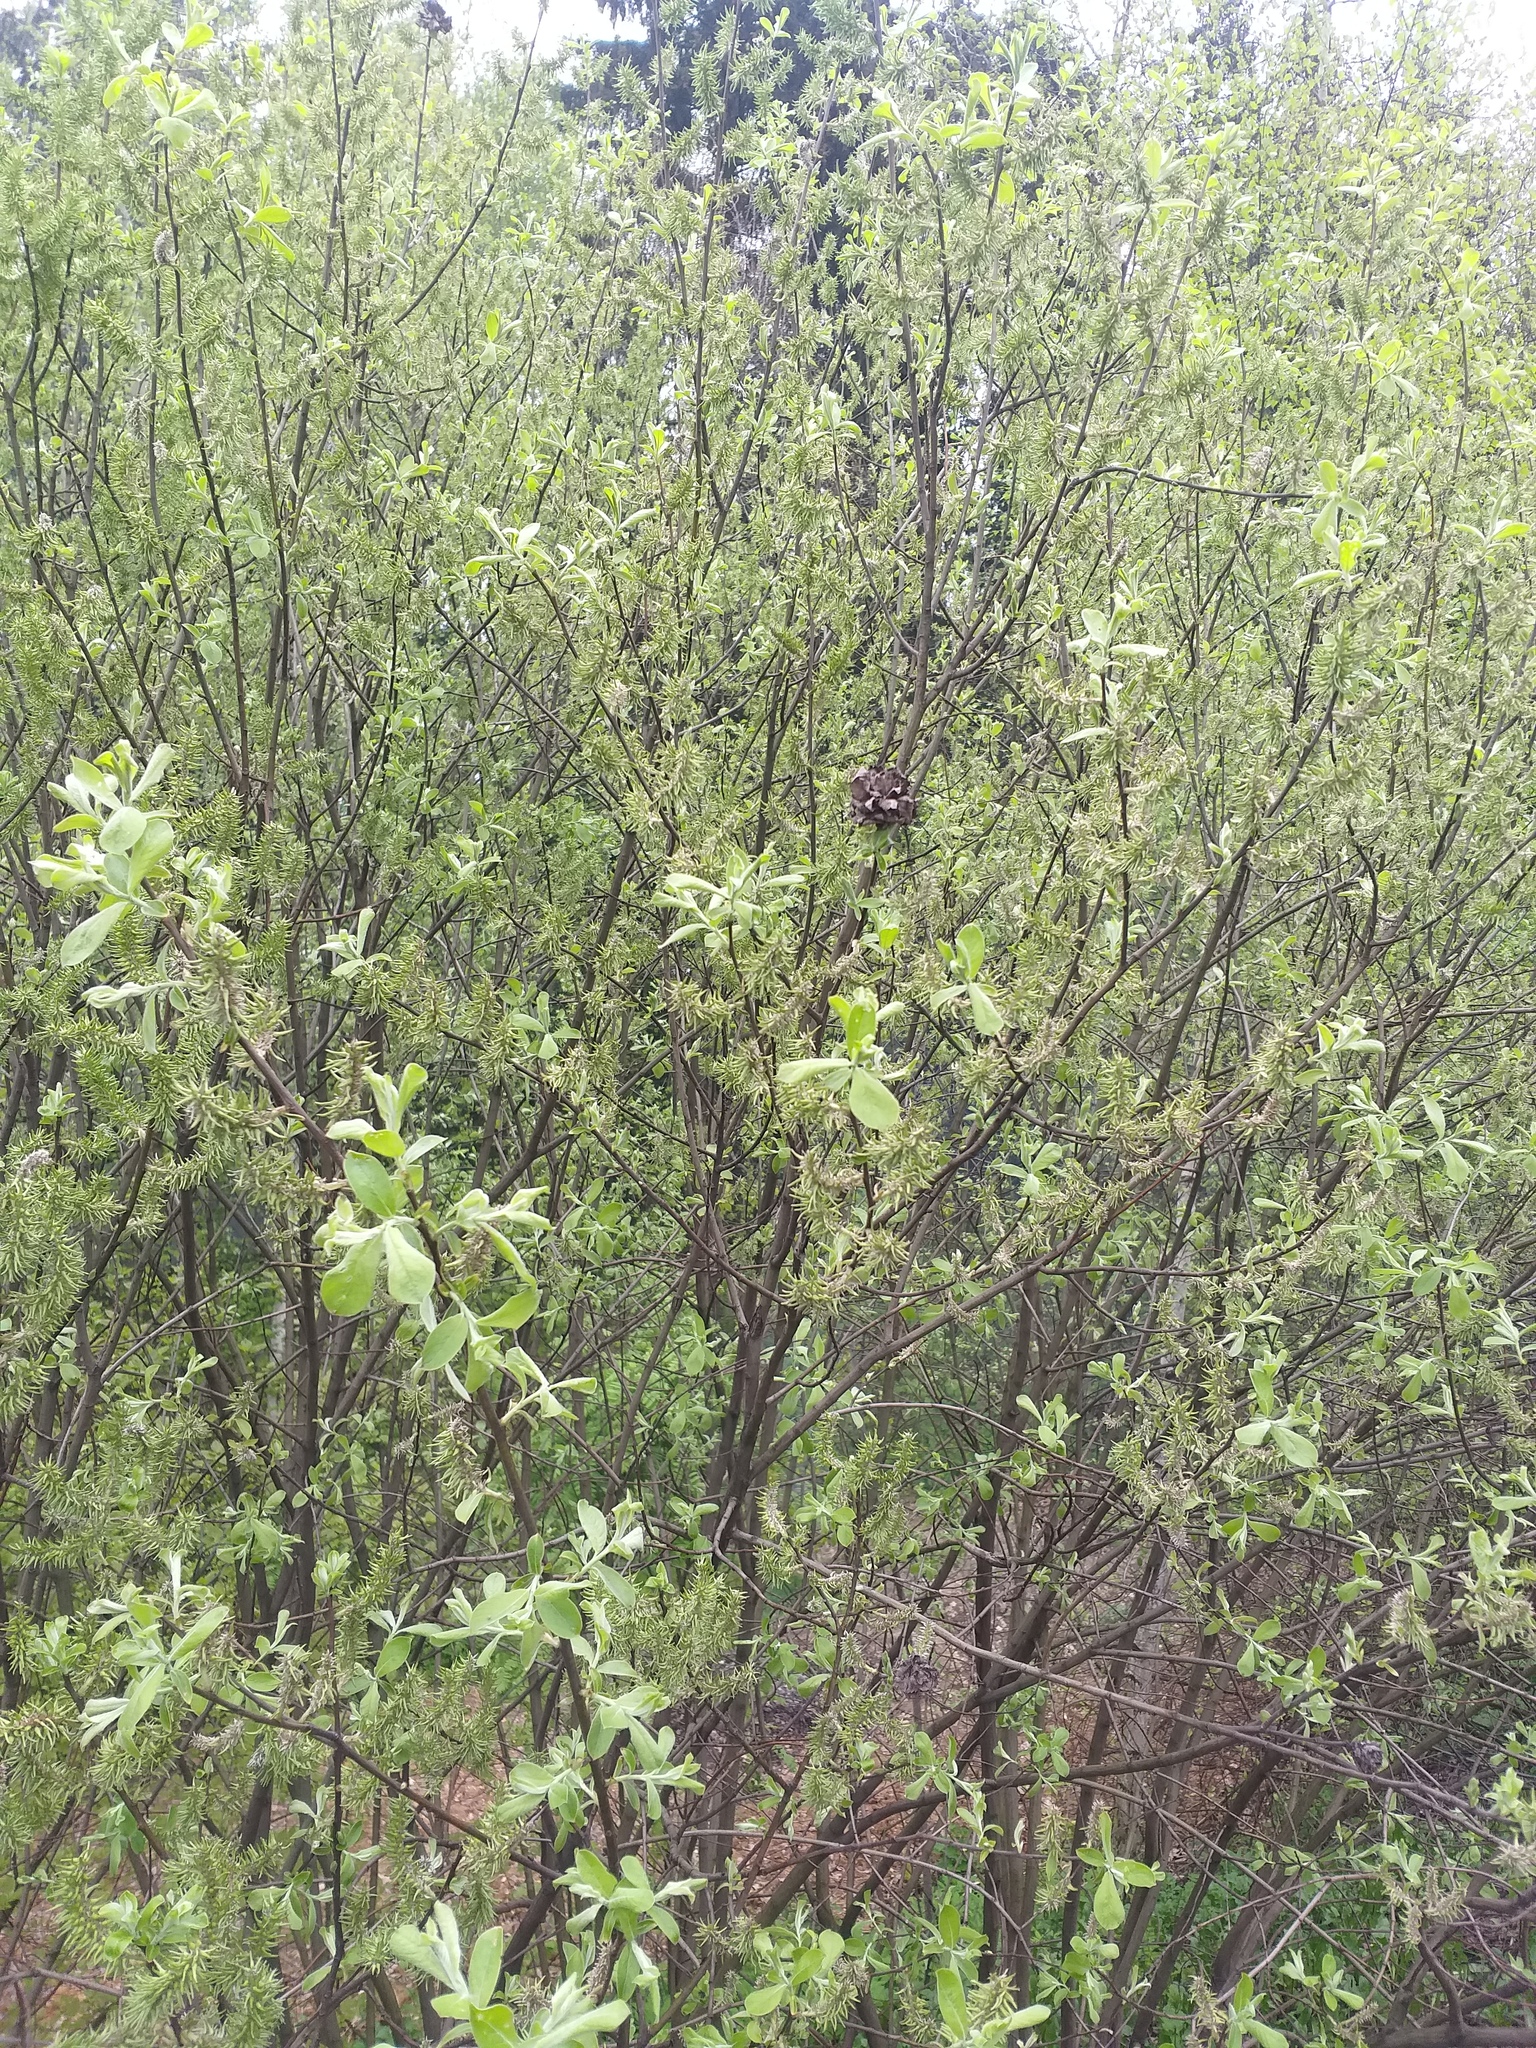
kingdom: Plantae
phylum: Tracheophyta
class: Magnoliopsida
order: Malpighiales
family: Salicaceae
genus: Salix
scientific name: Salix cinerea
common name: Common sallow
